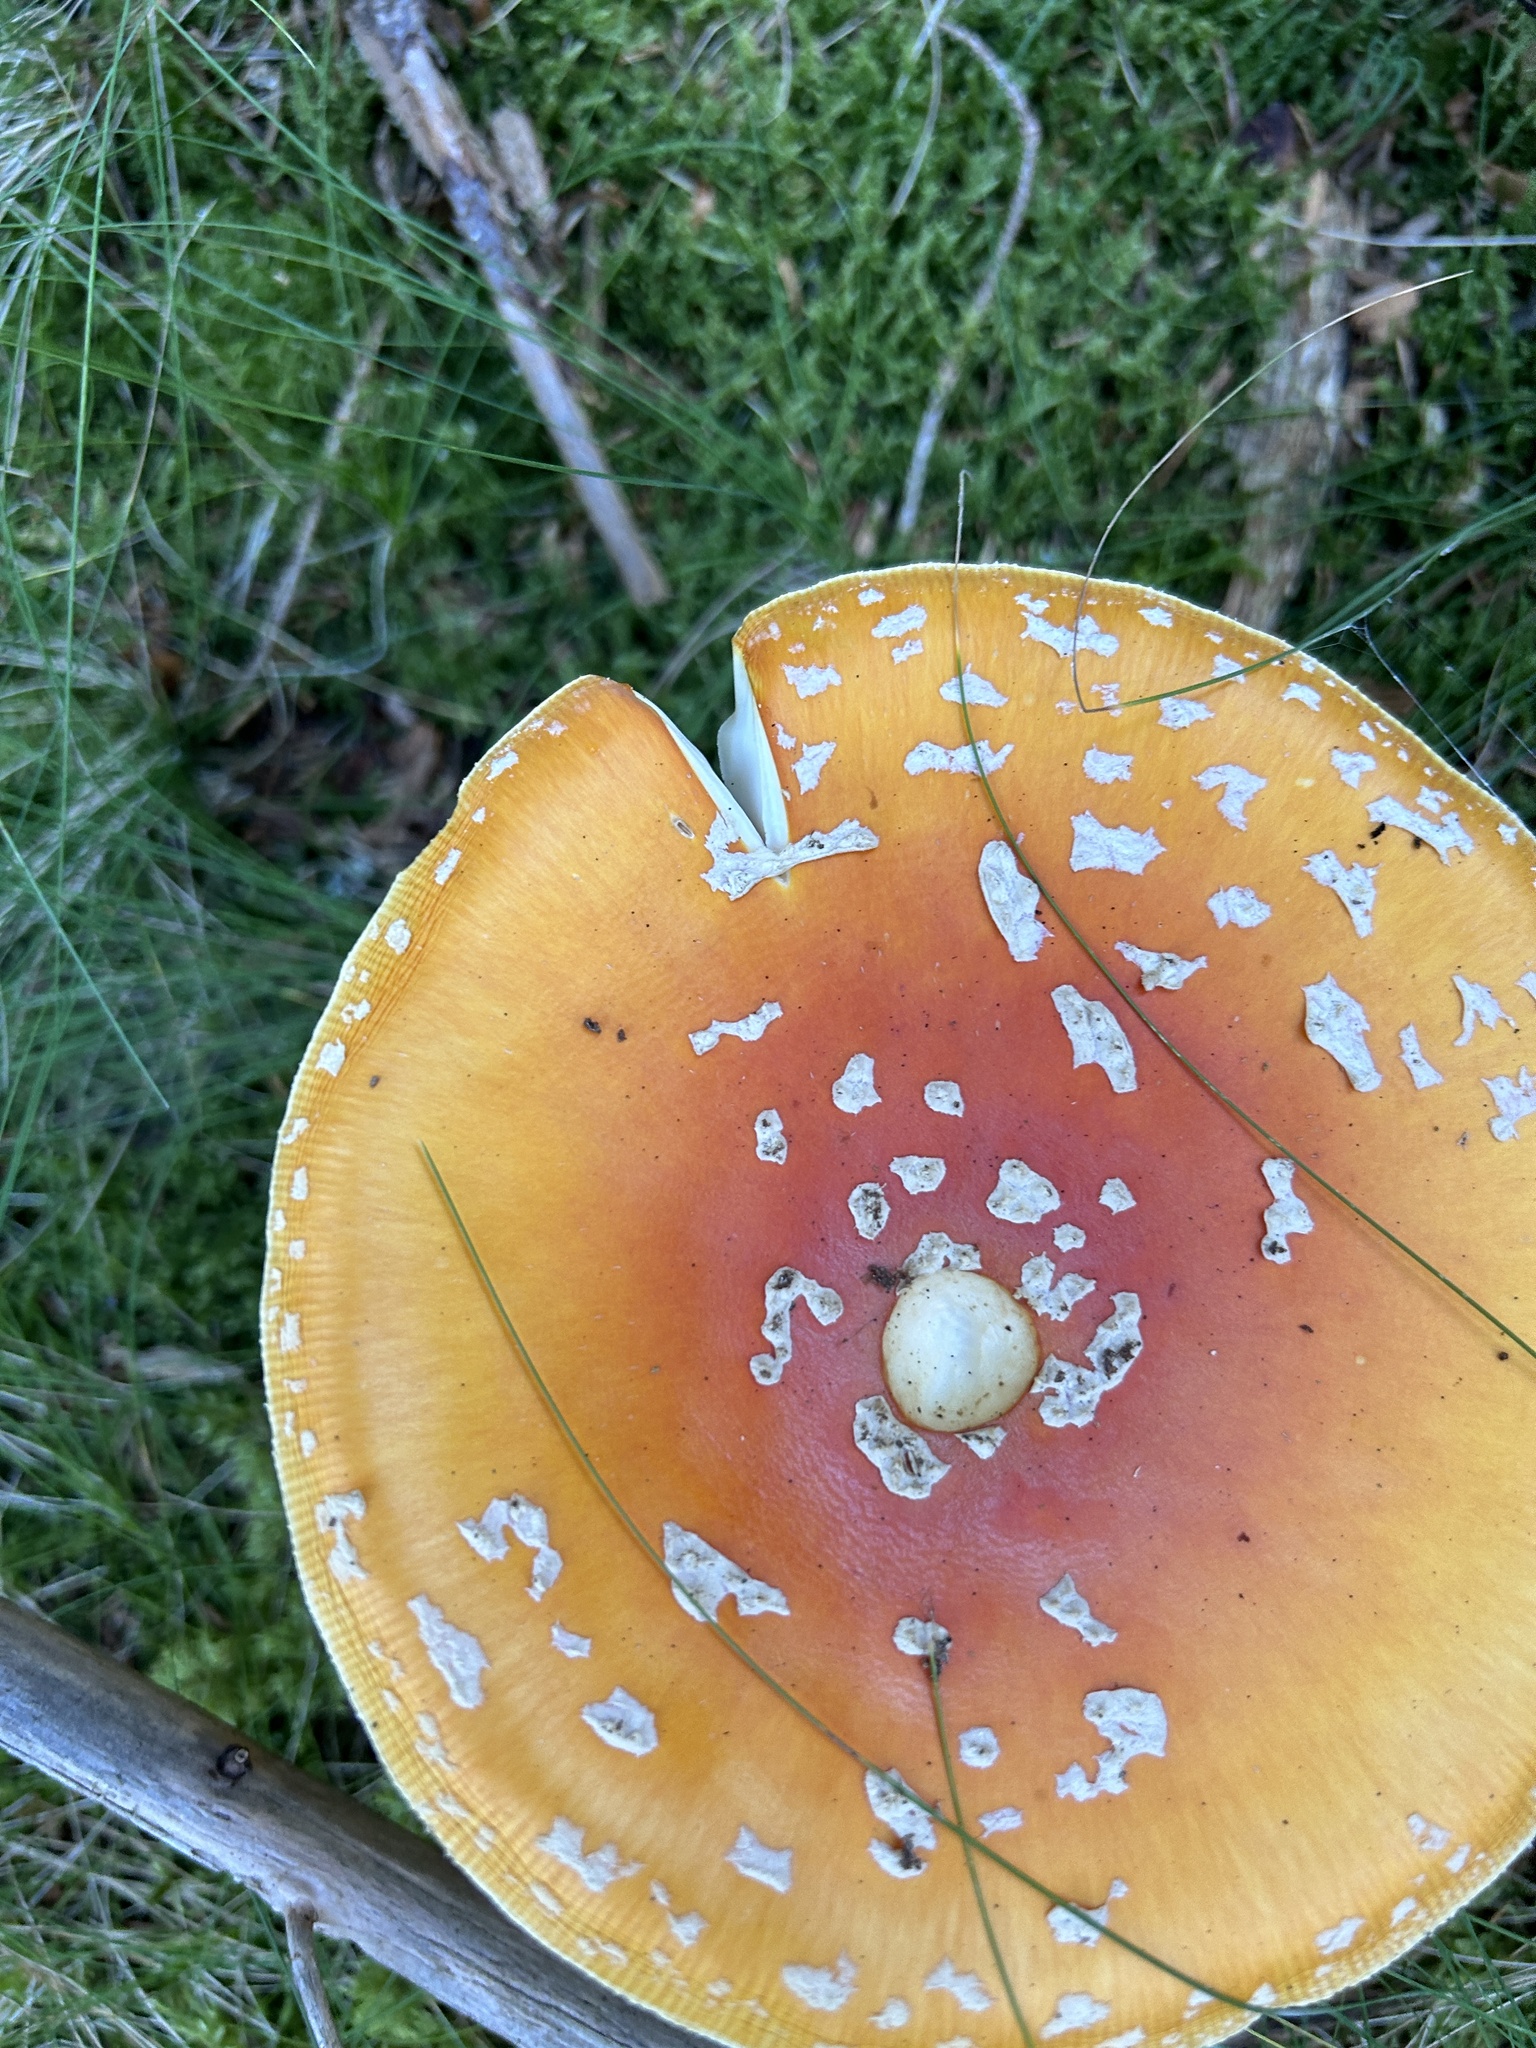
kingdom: Fungi
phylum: Basidiomycota
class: Agaricomycetes
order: Agaricales
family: Amanitaceae
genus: Amanita
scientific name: Amanita muscaria
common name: Fly agaric
